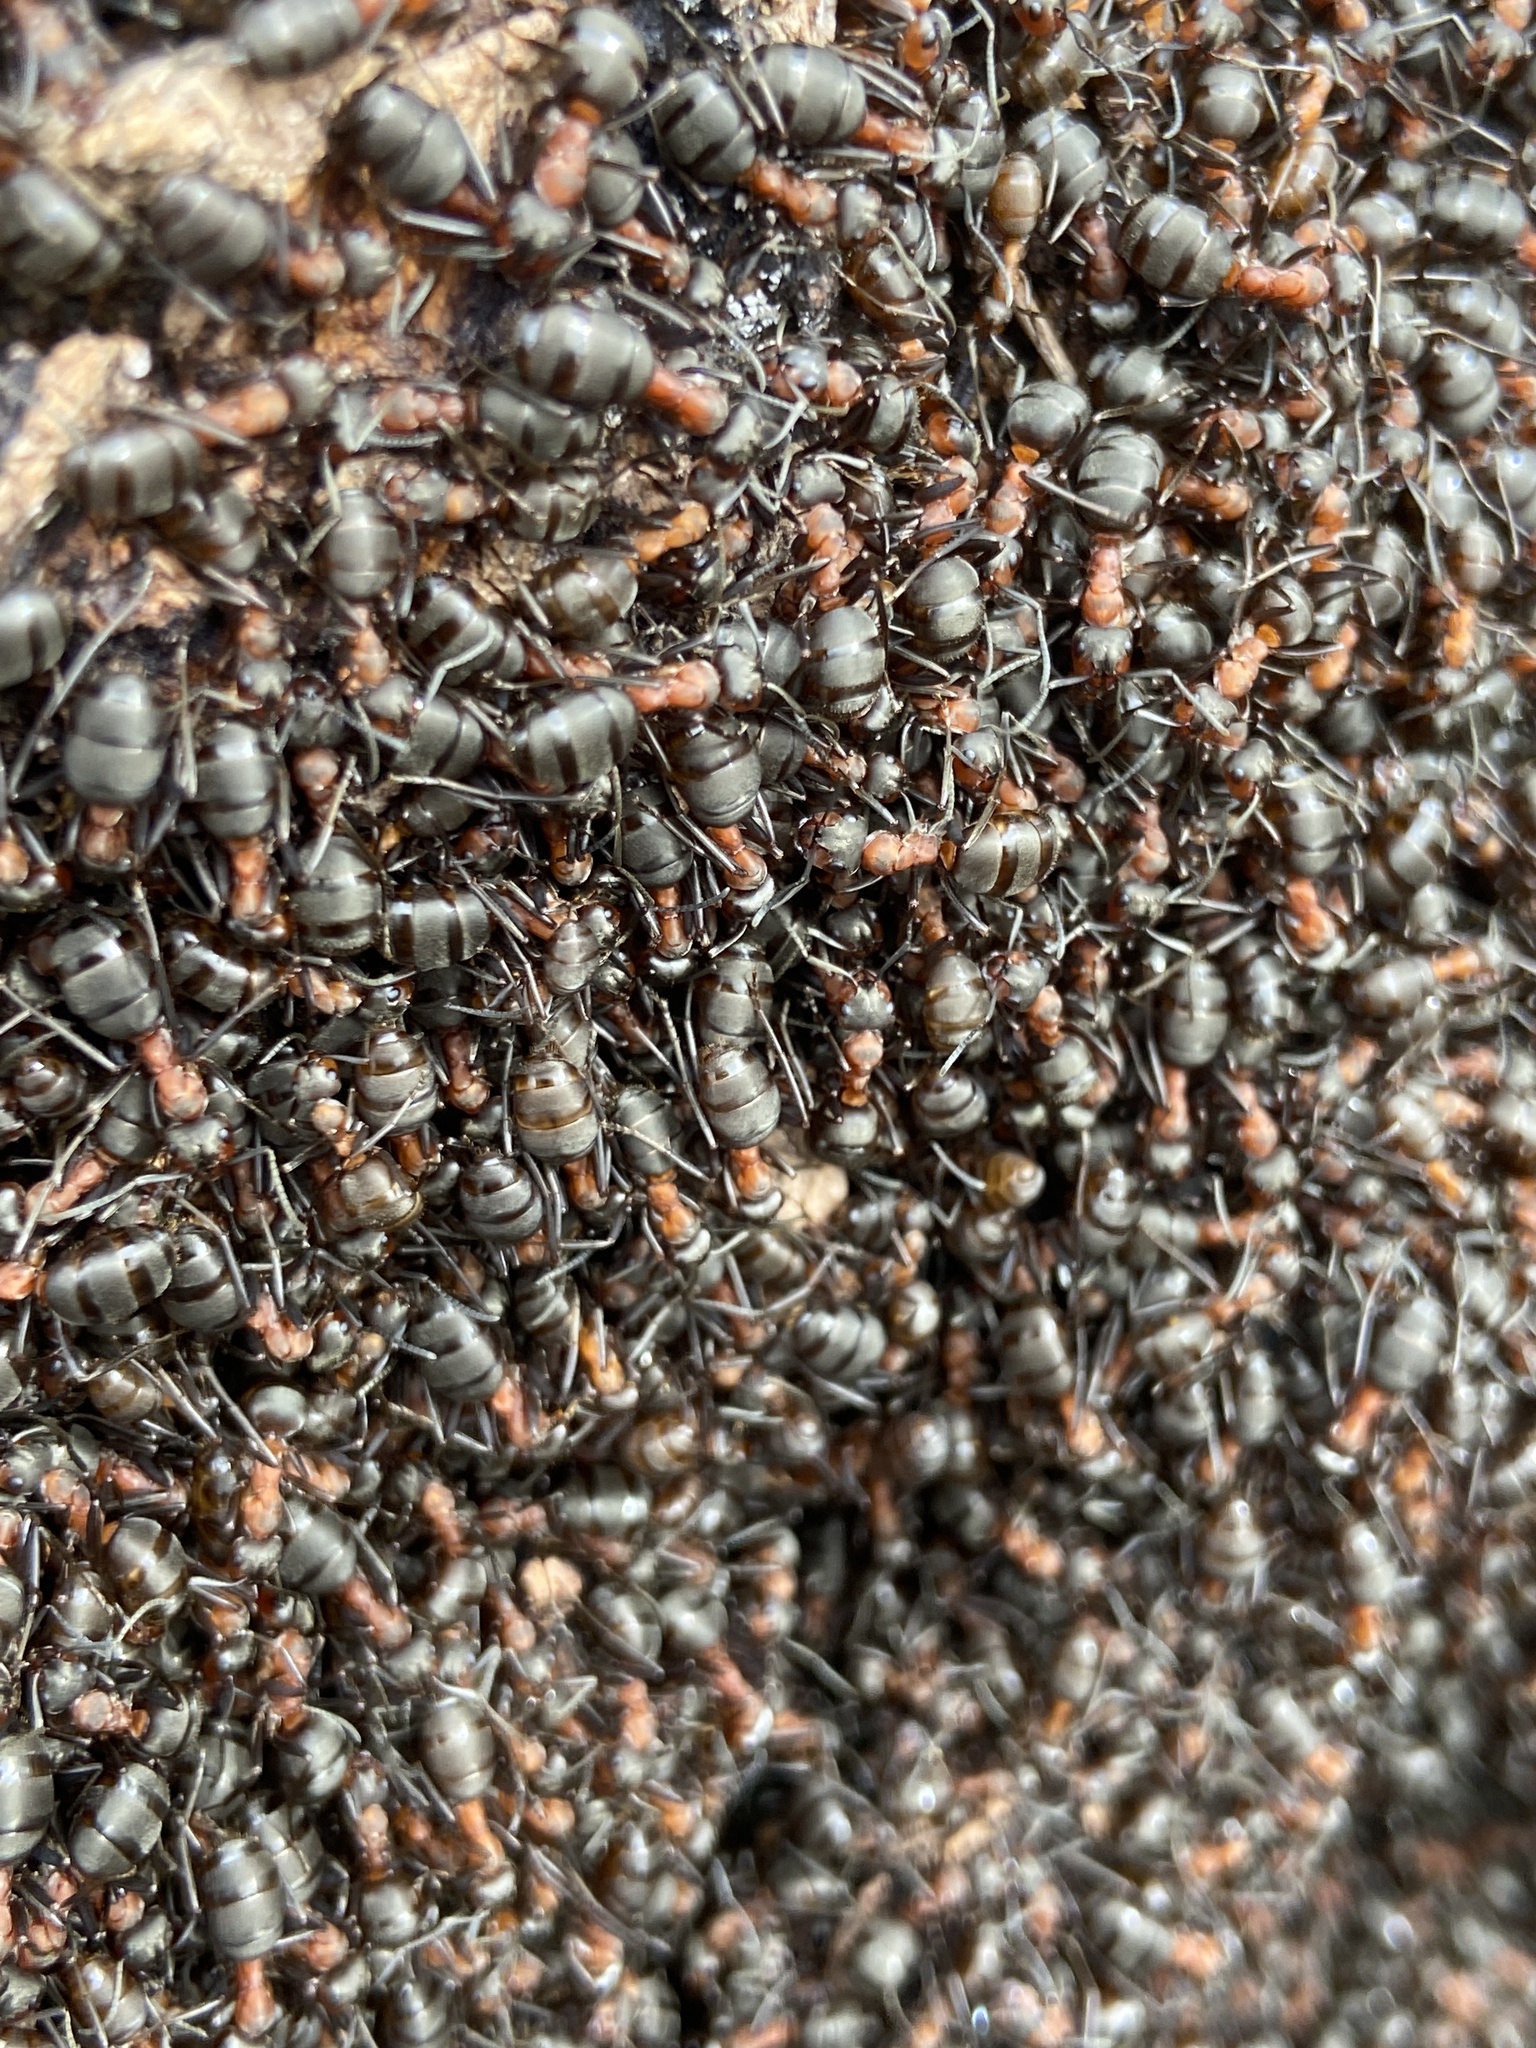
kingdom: Animalia
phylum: Arthropoda
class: Insecta
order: Hymenoptera
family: Formicidae
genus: Formica
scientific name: Formica
